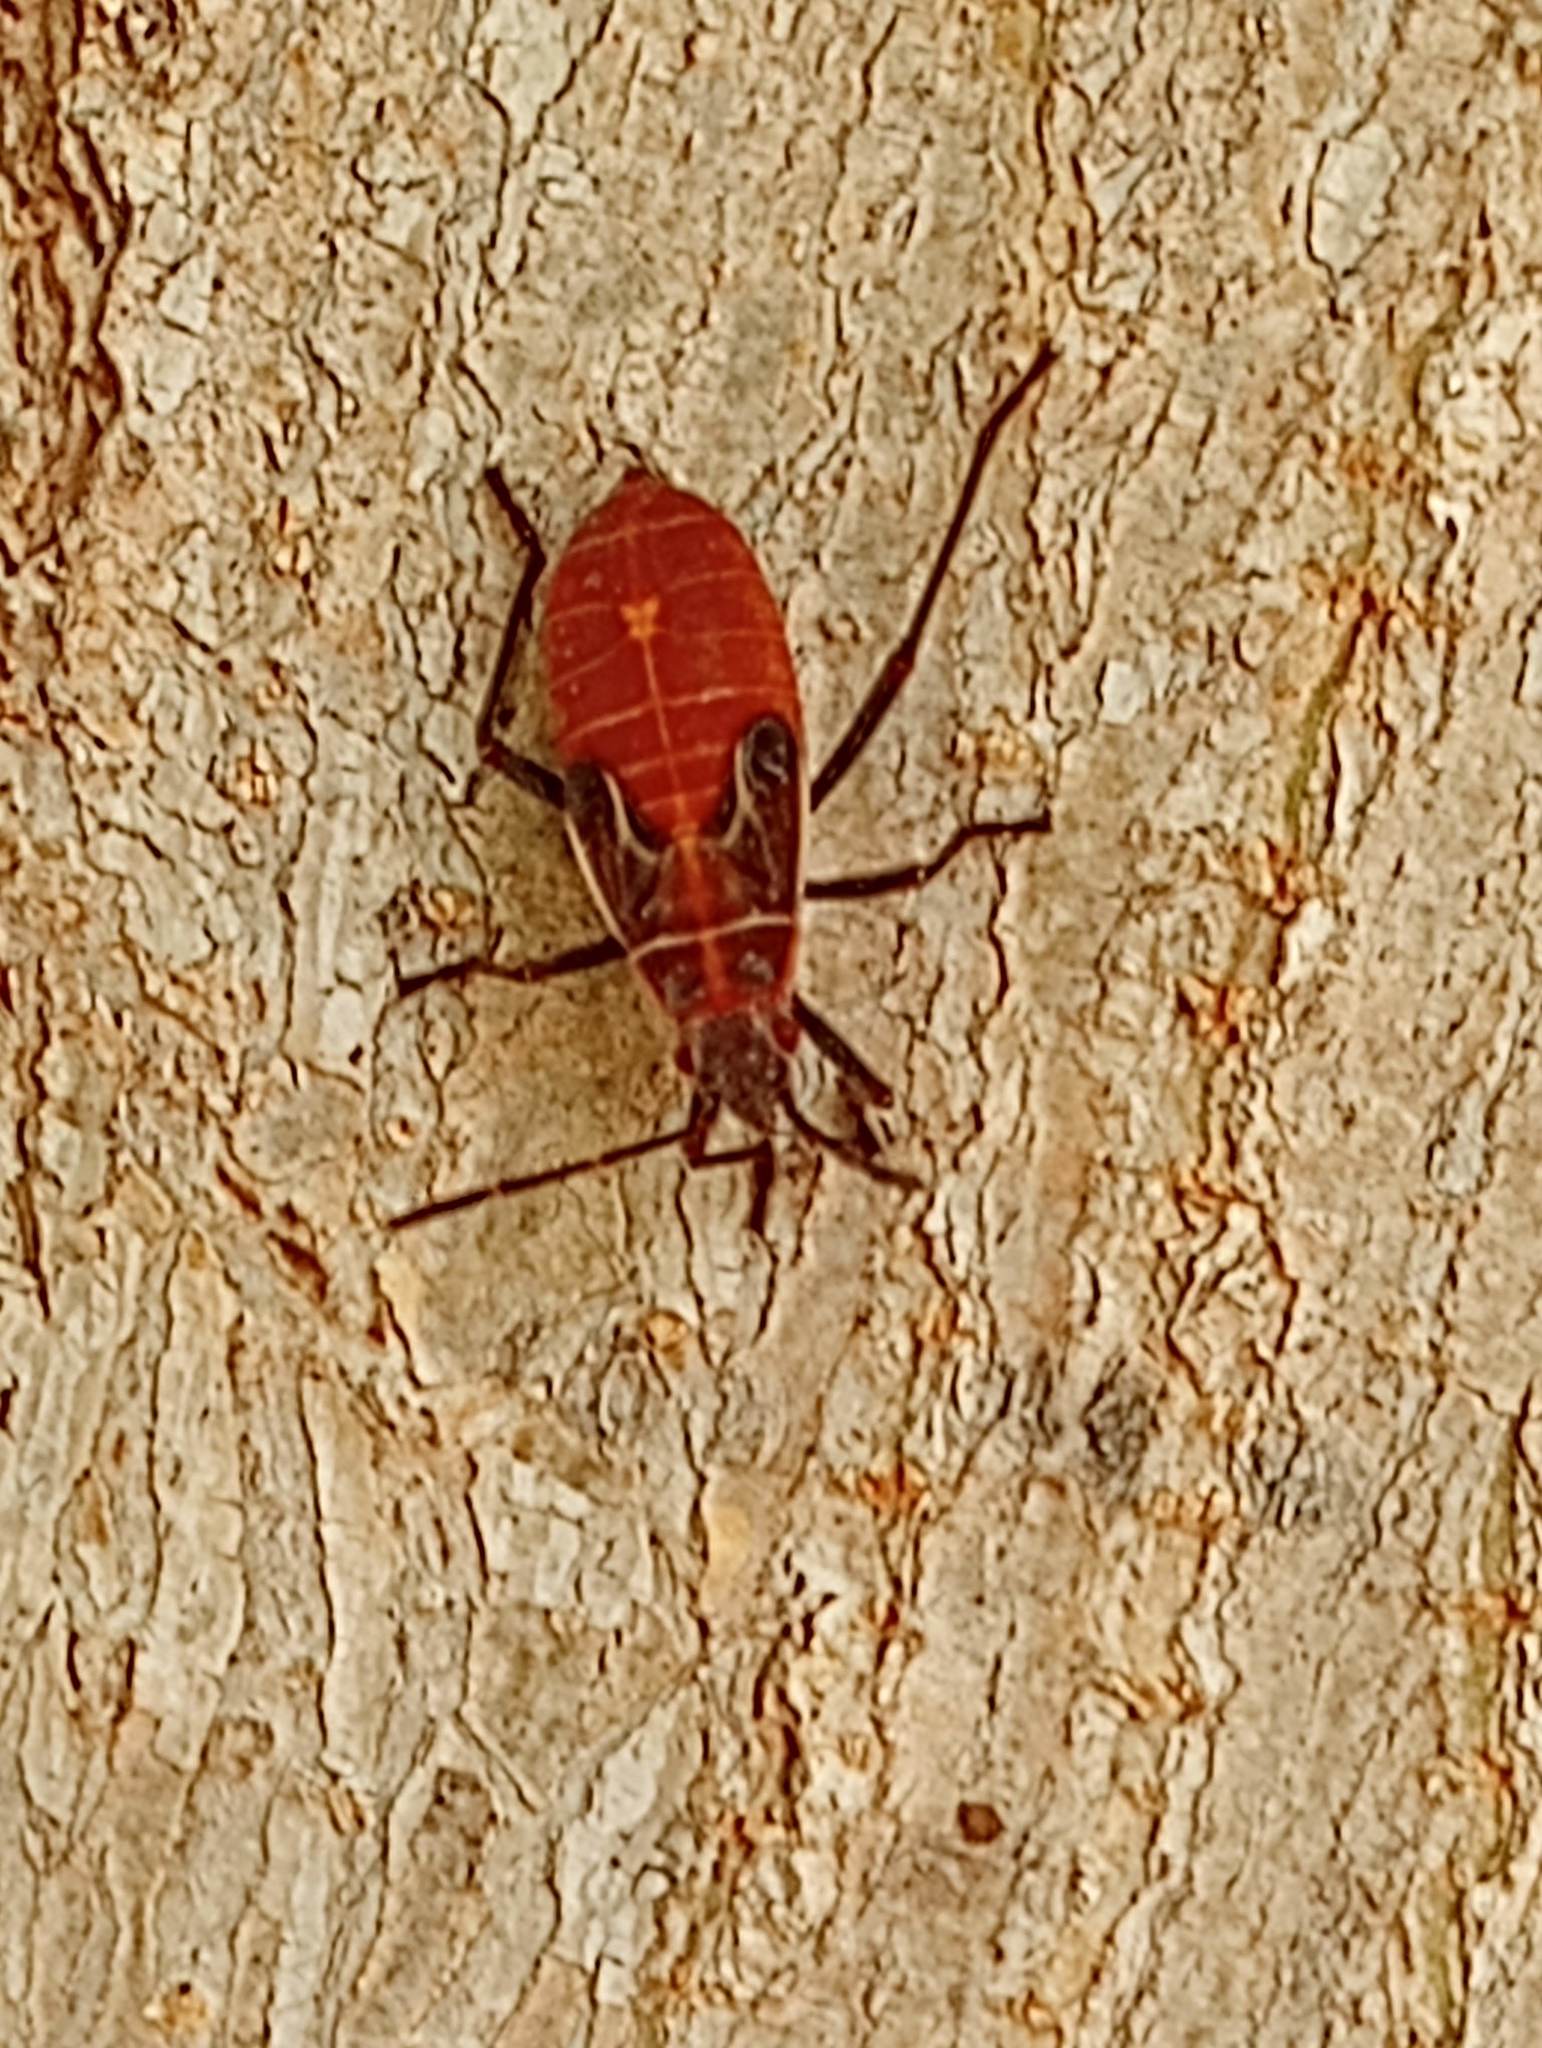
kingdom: Animalia
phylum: Arthropoda
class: Insecta
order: Hemiptera
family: Rhopalidae
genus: Boisea
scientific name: Boisea rubrolineata
